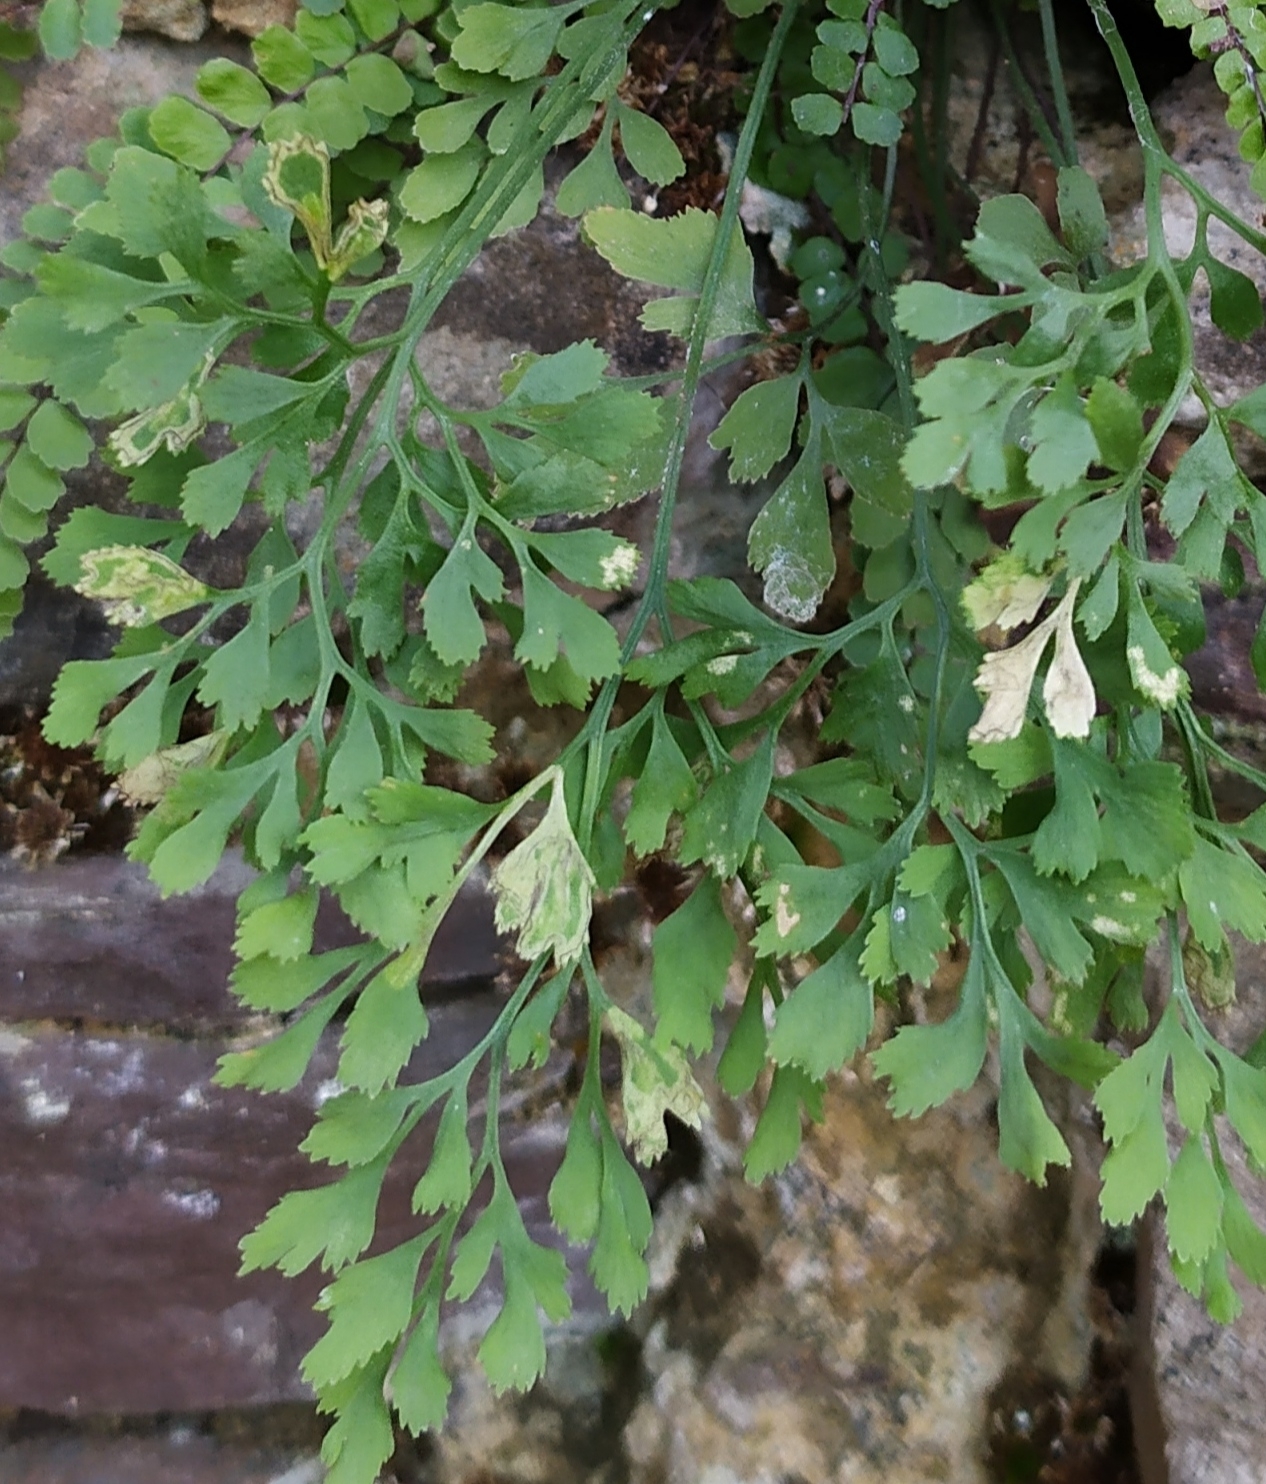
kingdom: Animalia
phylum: Arthropoda
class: Insecta
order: Diptera
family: Agromyzidae
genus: Phytomyza
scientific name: Phytomyza scolopendri
